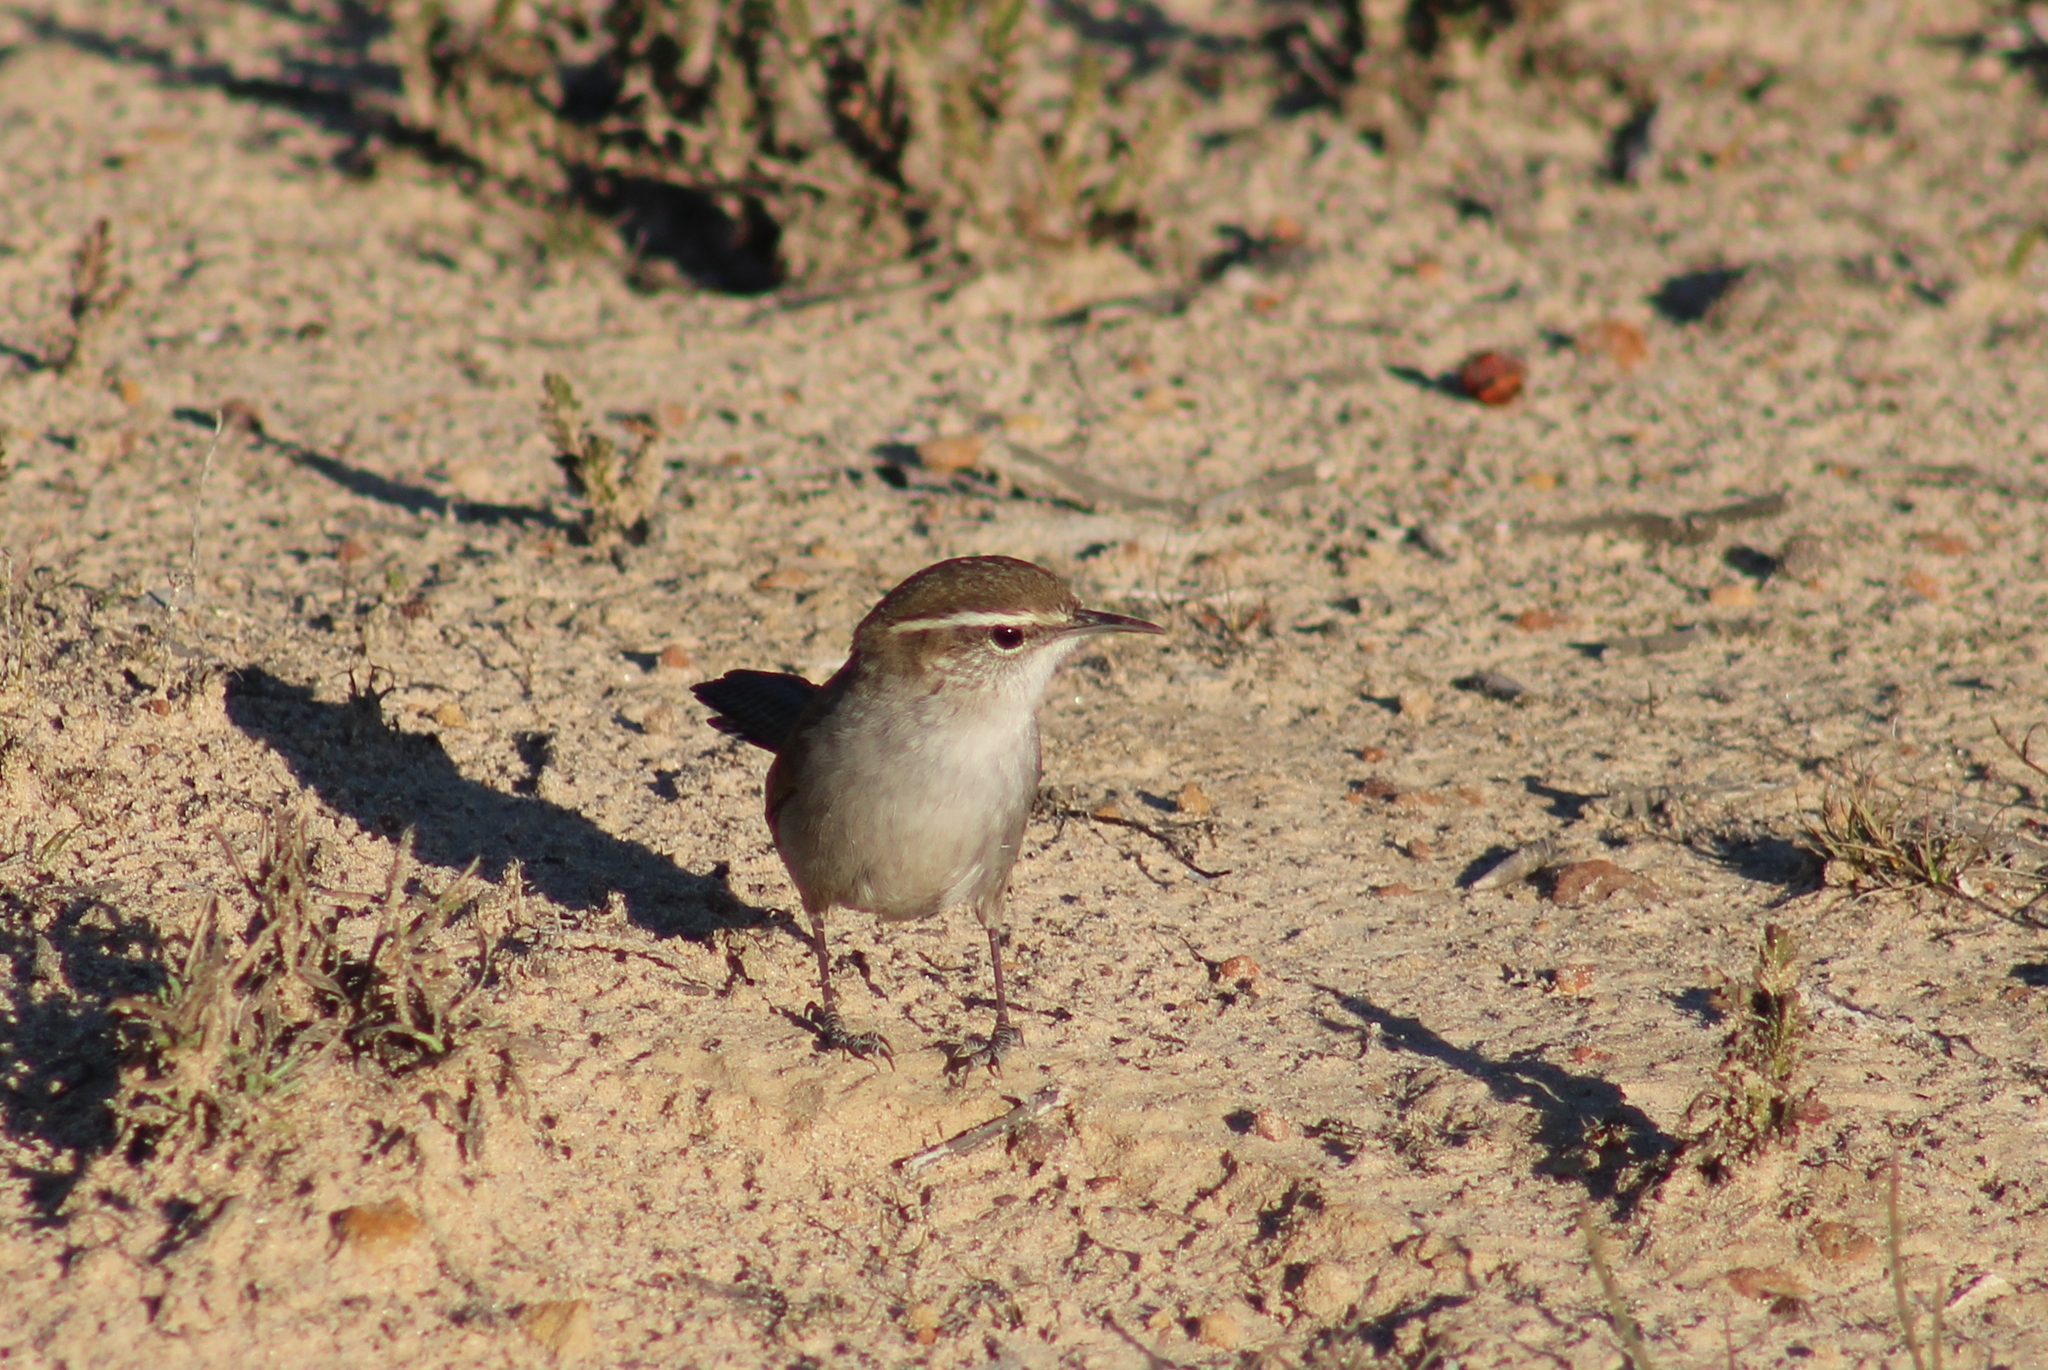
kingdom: Animalia
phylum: Chordata
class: Aves
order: Passeriformes
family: Troglodytidae
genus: Thryomanes
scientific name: Thryomanes bewickii
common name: Bewick's wren
